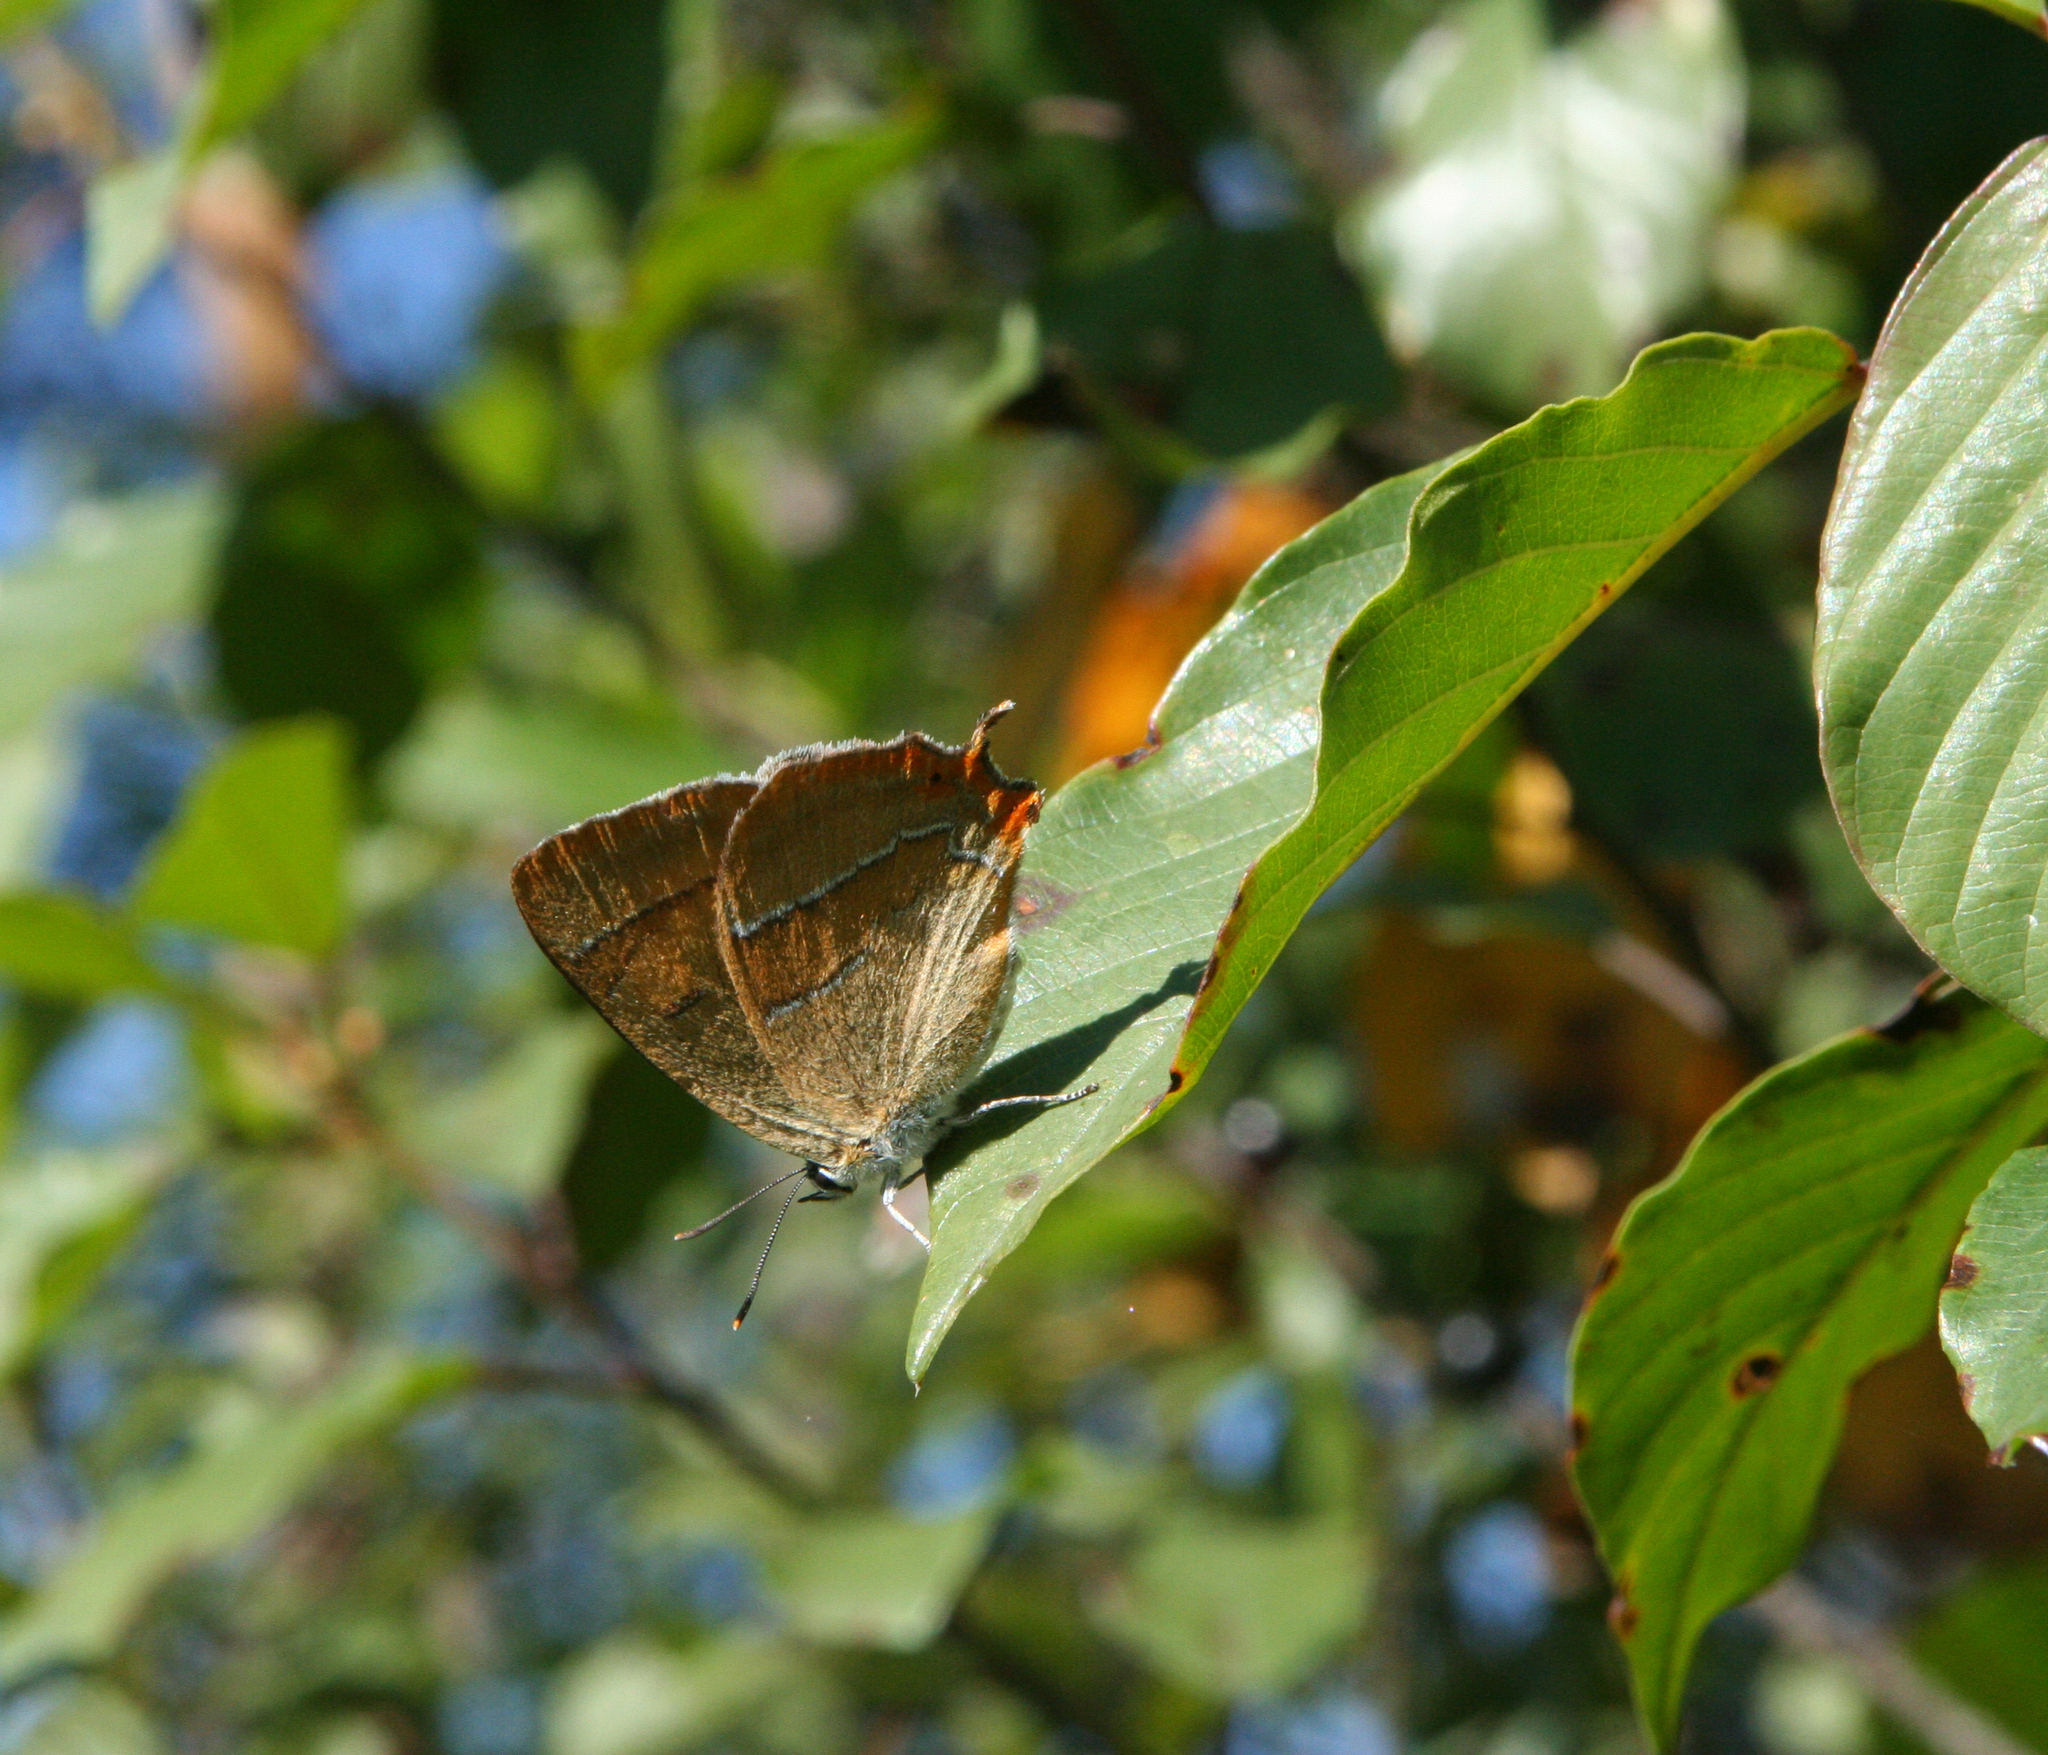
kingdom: Plantae
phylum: Tracheophyta
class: Magnoliopsida
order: Rosales
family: Rhamnaceae
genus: Frangula
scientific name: Frangula alnus
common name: Alder buckthorn
